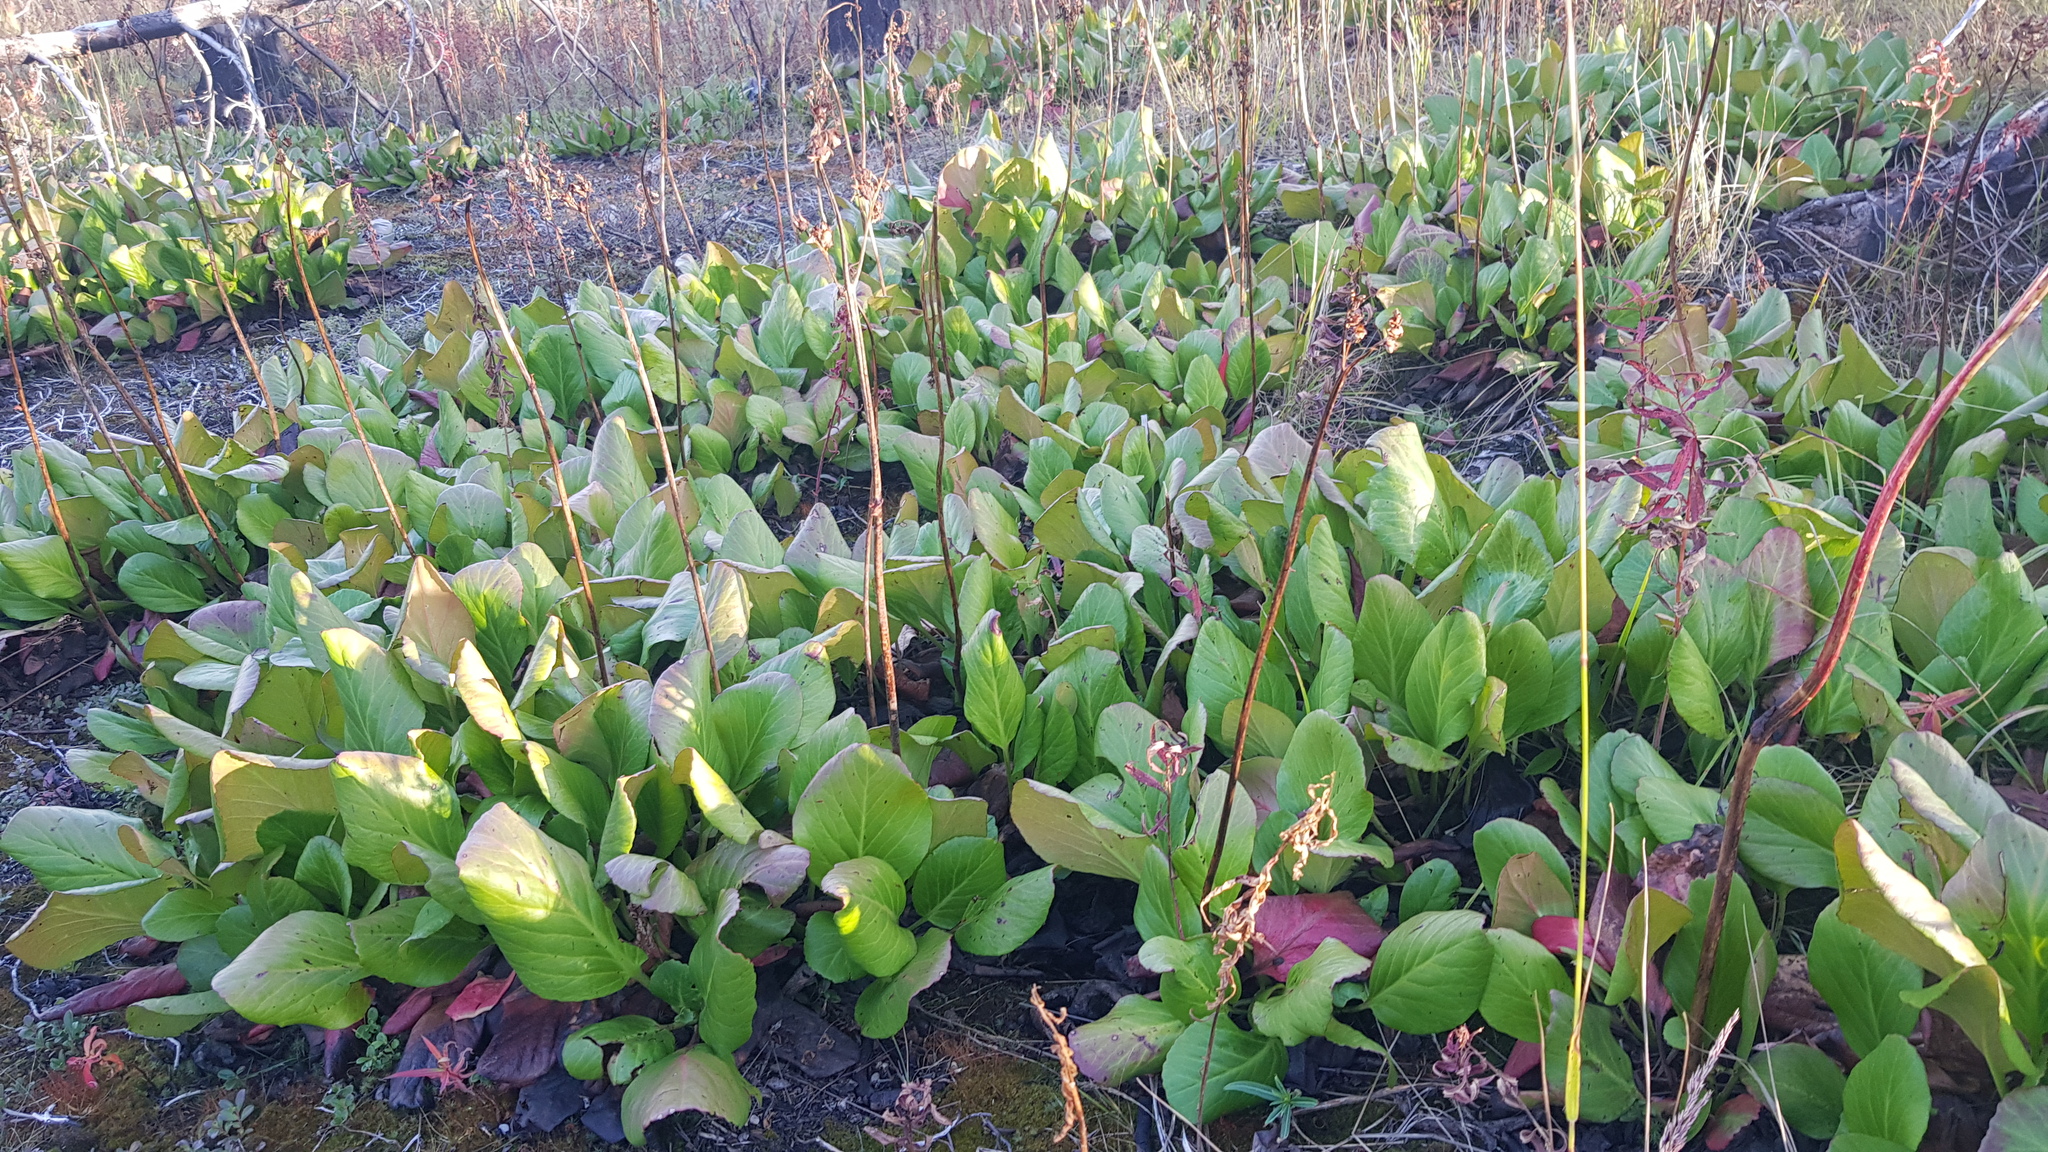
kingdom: Plantae
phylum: Tracheophyta
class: Magnoliopsida
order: Saxifragales
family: Saxifragaceae
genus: Bergenia
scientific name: Bergenia crassifolia
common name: Elephant-ears
